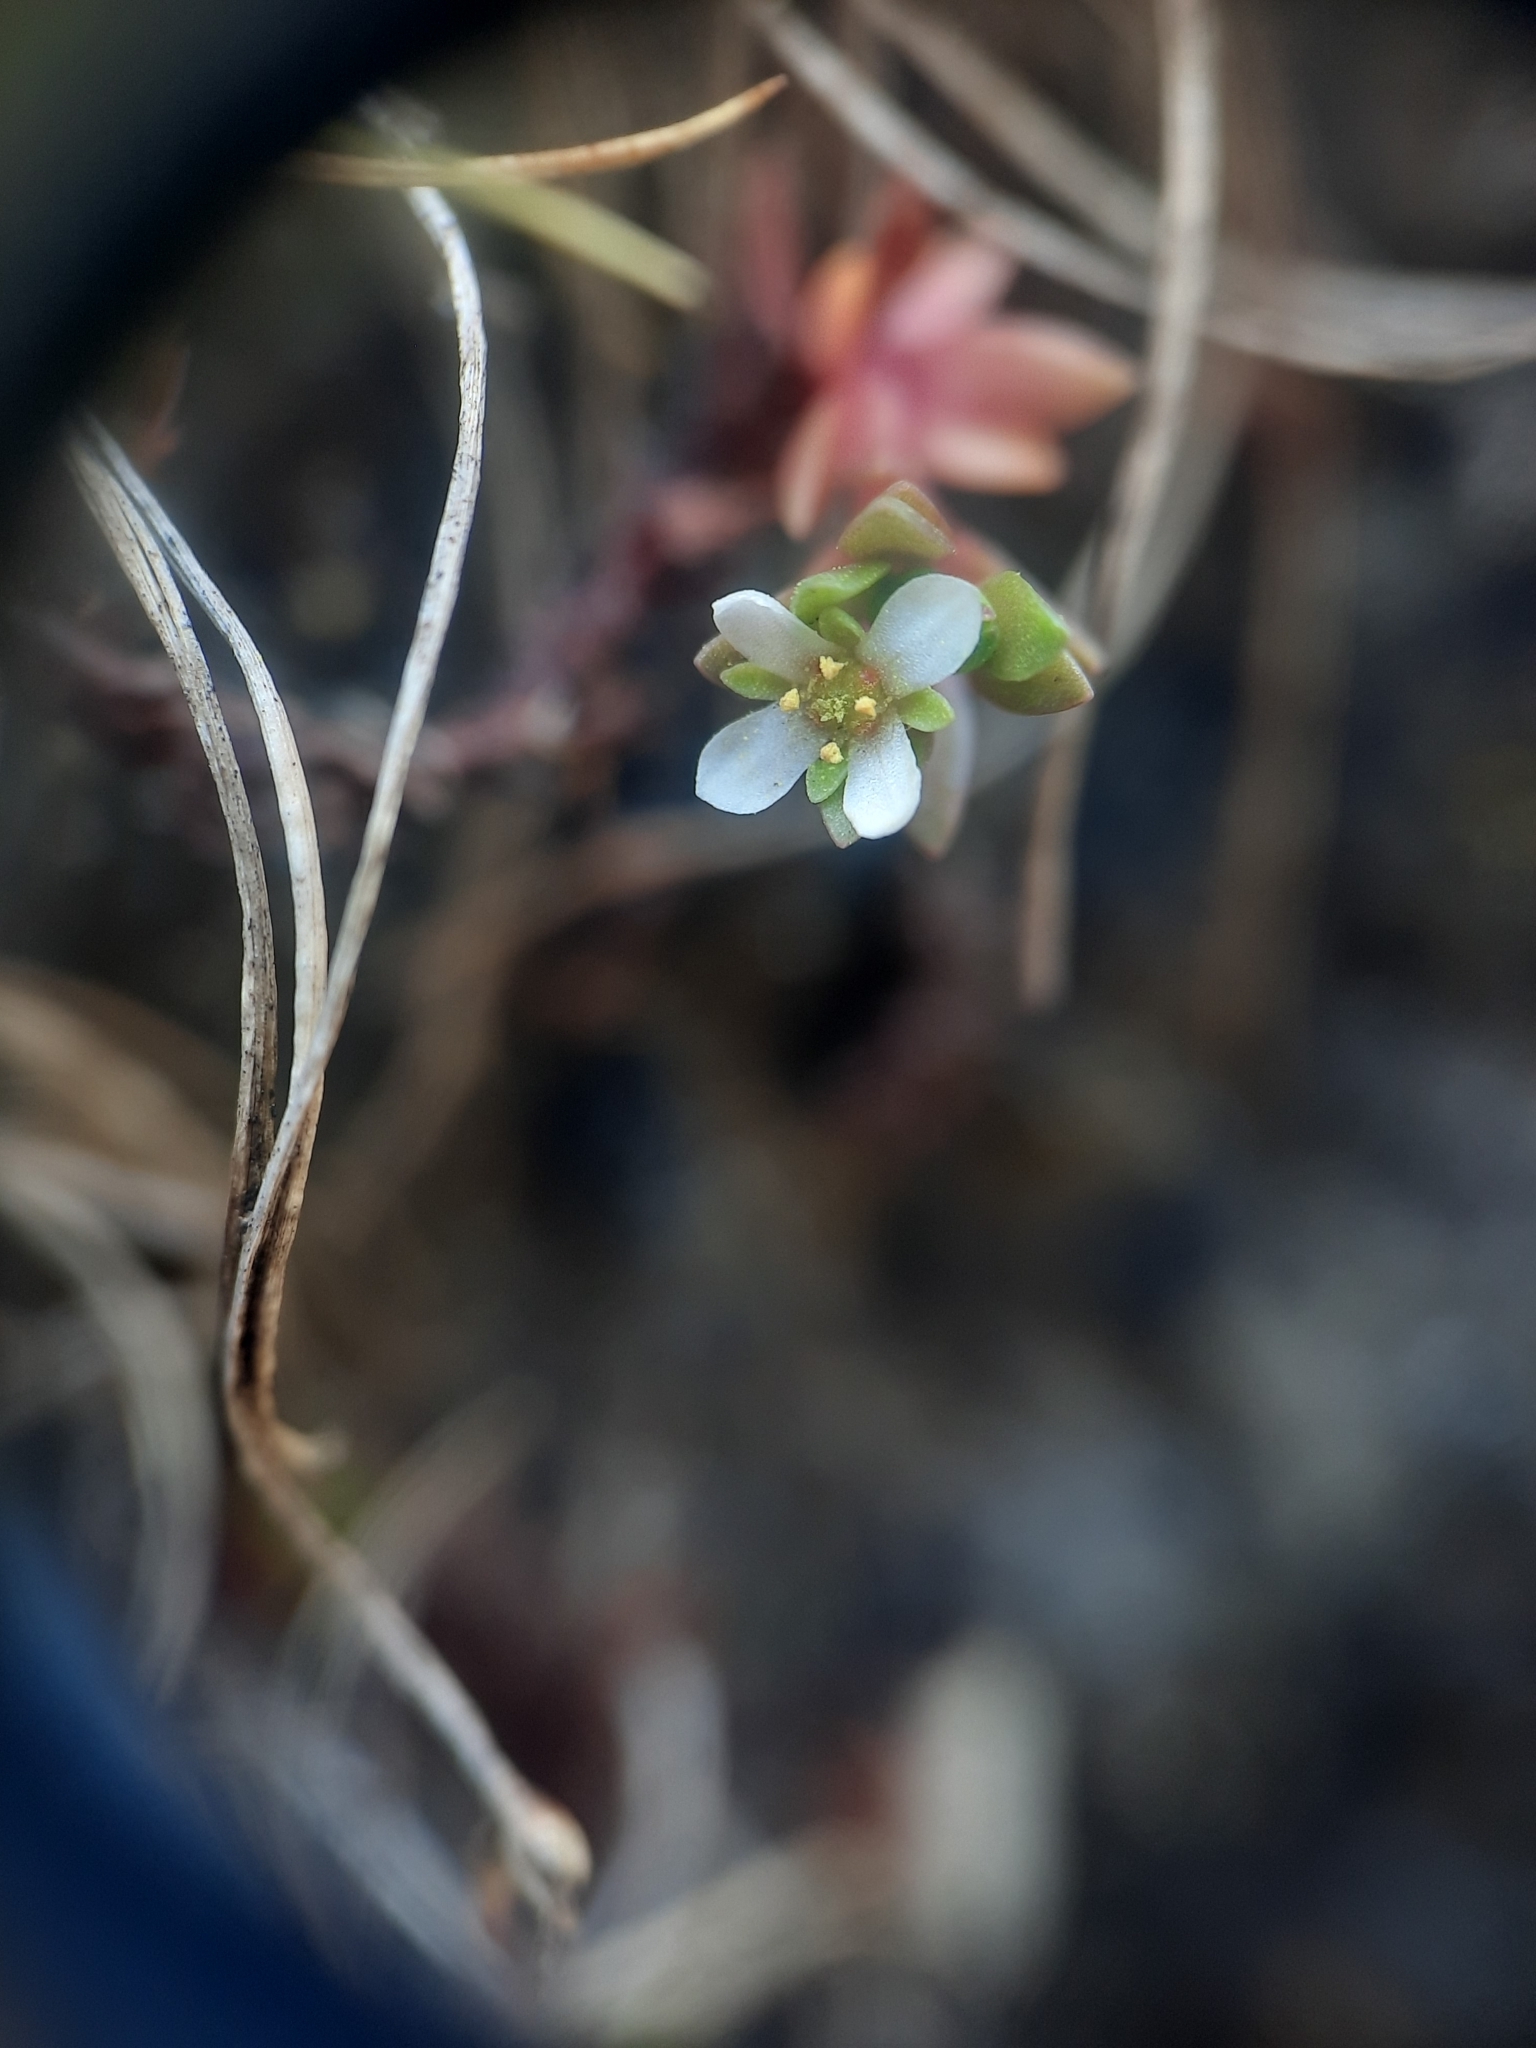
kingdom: Plantae
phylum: Tracheophyta
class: Magnoliopsida
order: Saxifragales
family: Crassulaceae
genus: Crassula
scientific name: Crassula moschata
